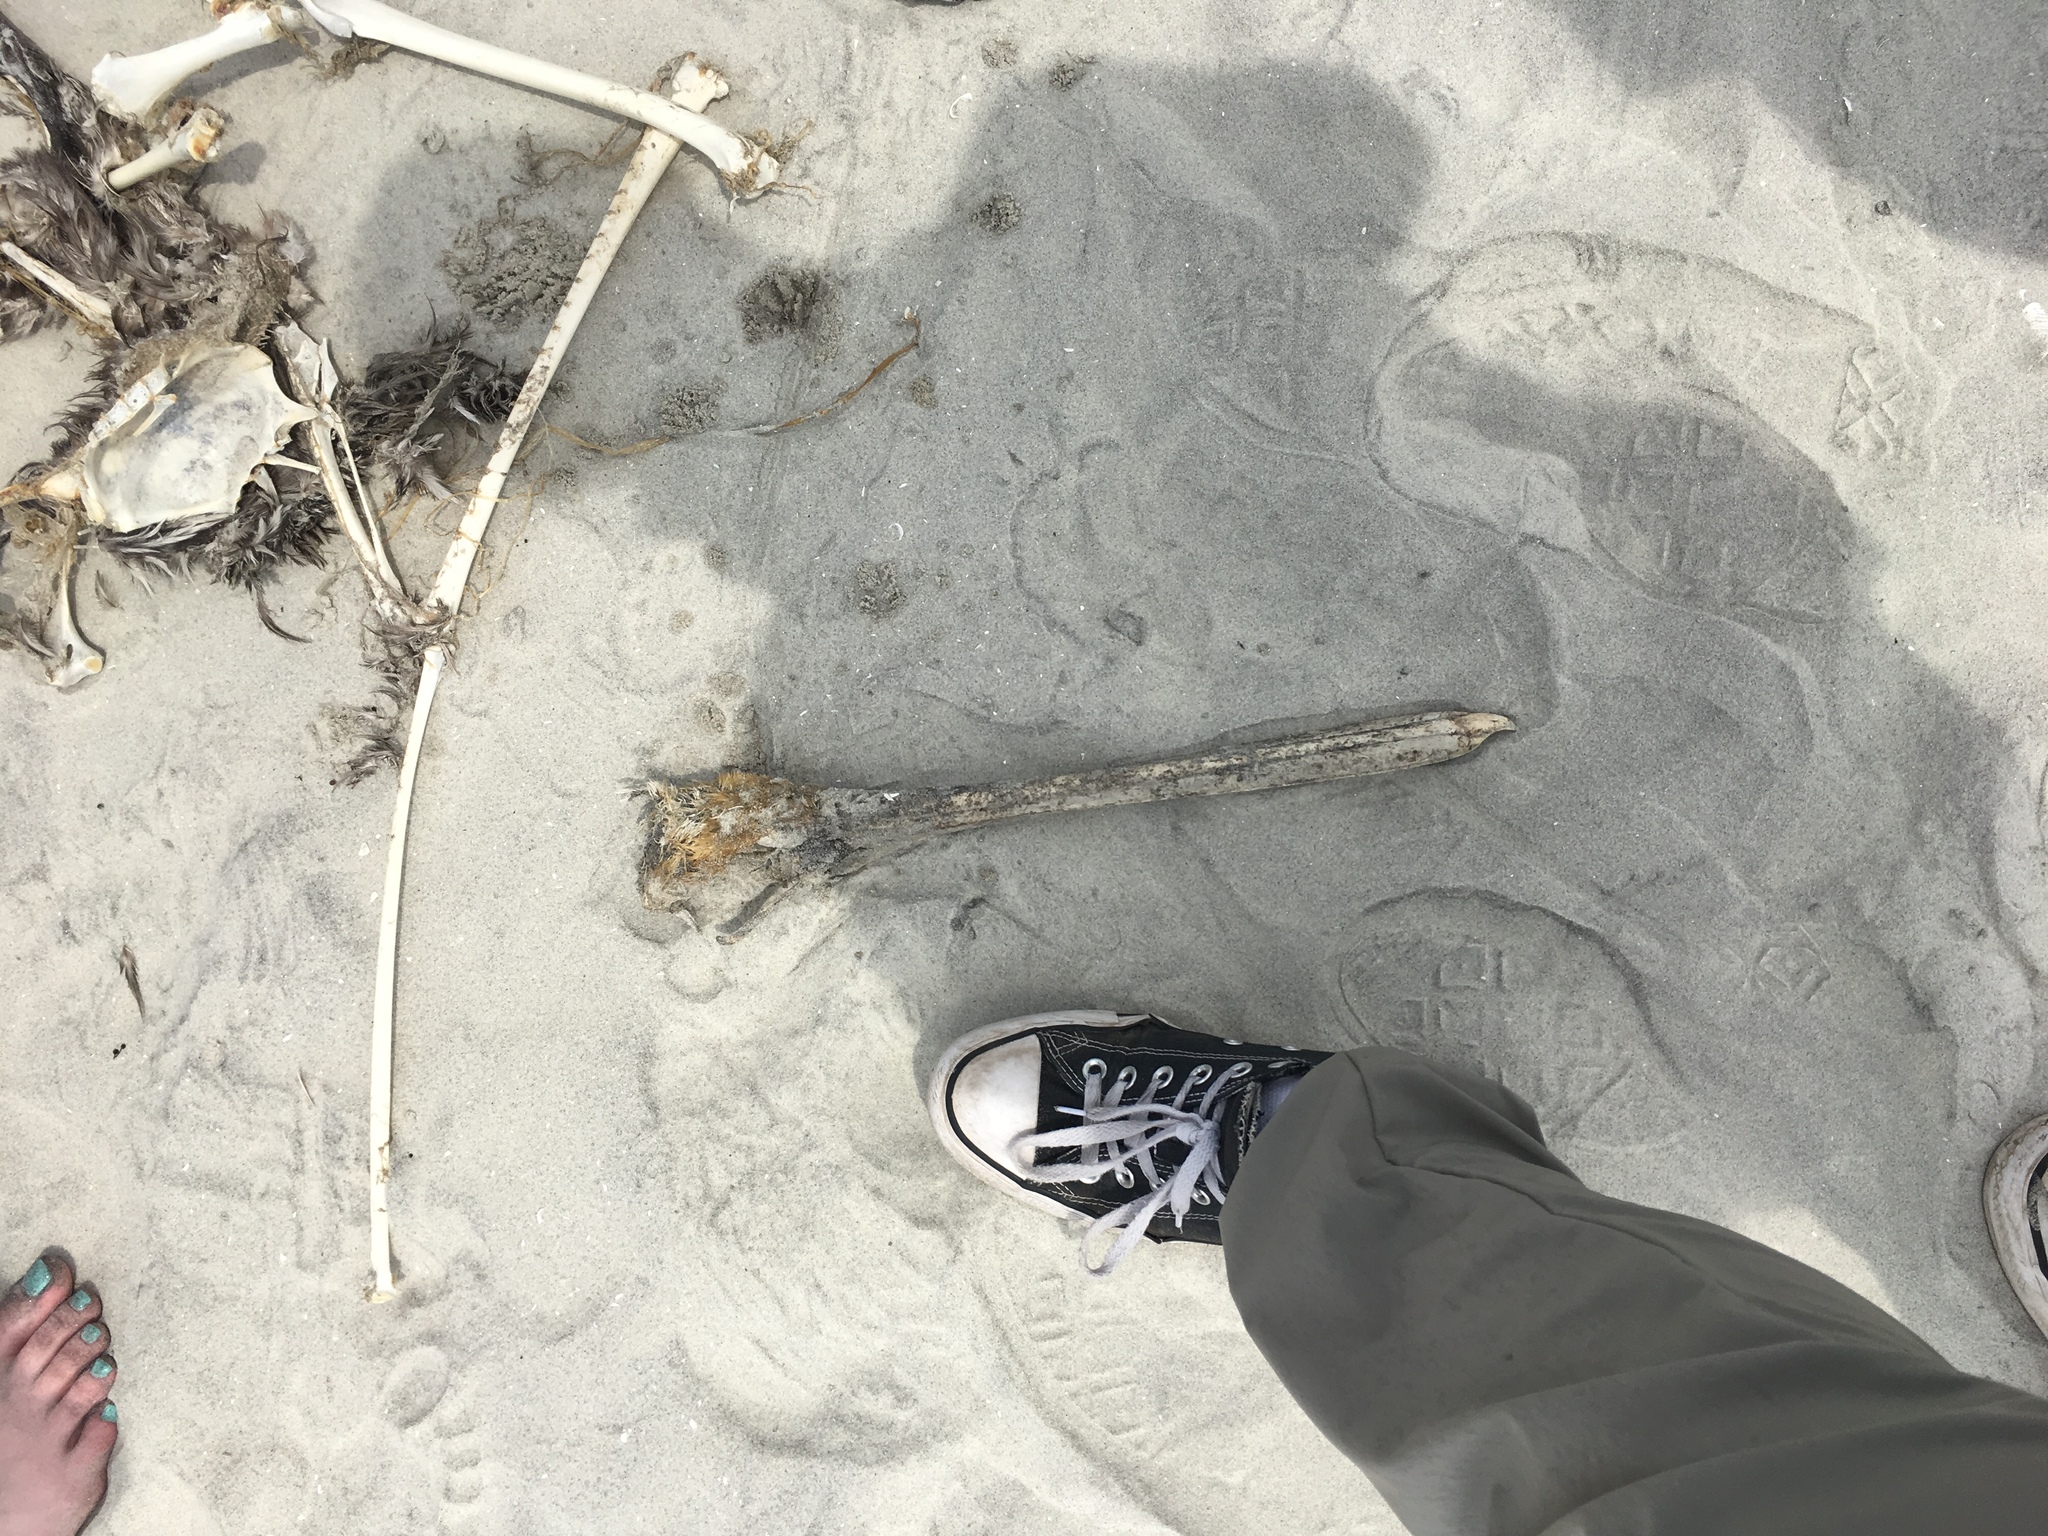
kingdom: Animalia
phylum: Chordata
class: Aves
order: Pelecaniformes
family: Pelecanidae
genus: Pelecanus
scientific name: Pelecanus occidentalis
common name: Brown pelican
